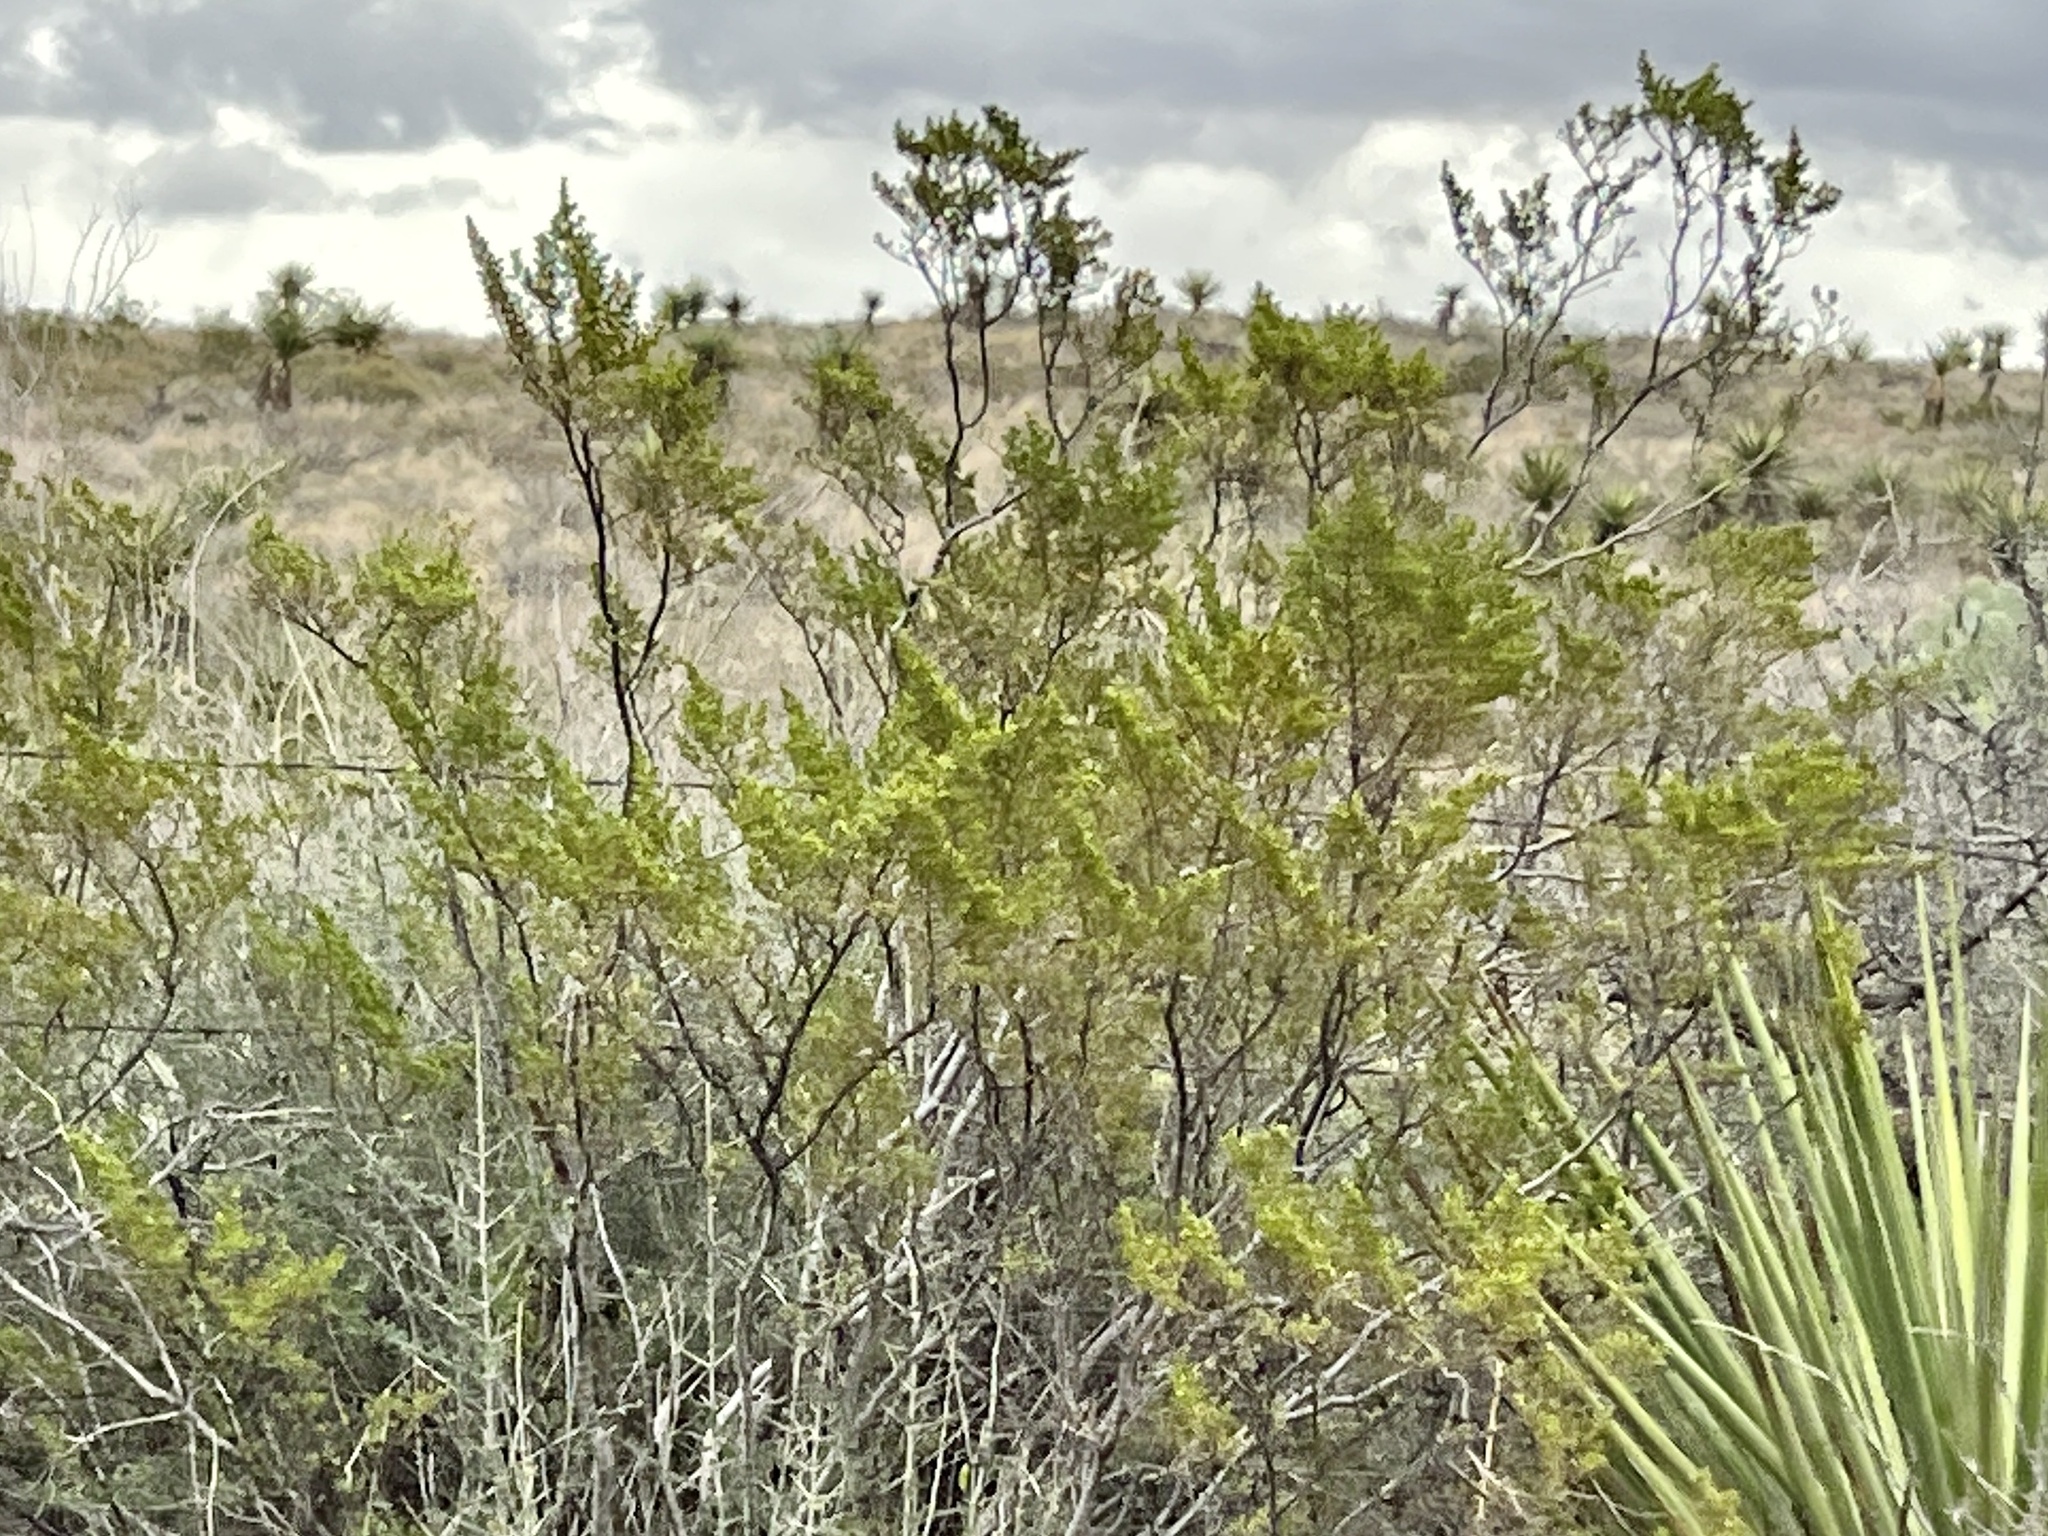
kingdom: Plantae
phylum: Tracheophyta
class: Magnoliopsida
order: Zygophyllales
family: Zygophyllaceae
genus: Larrea
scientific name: Larrea tridentata
